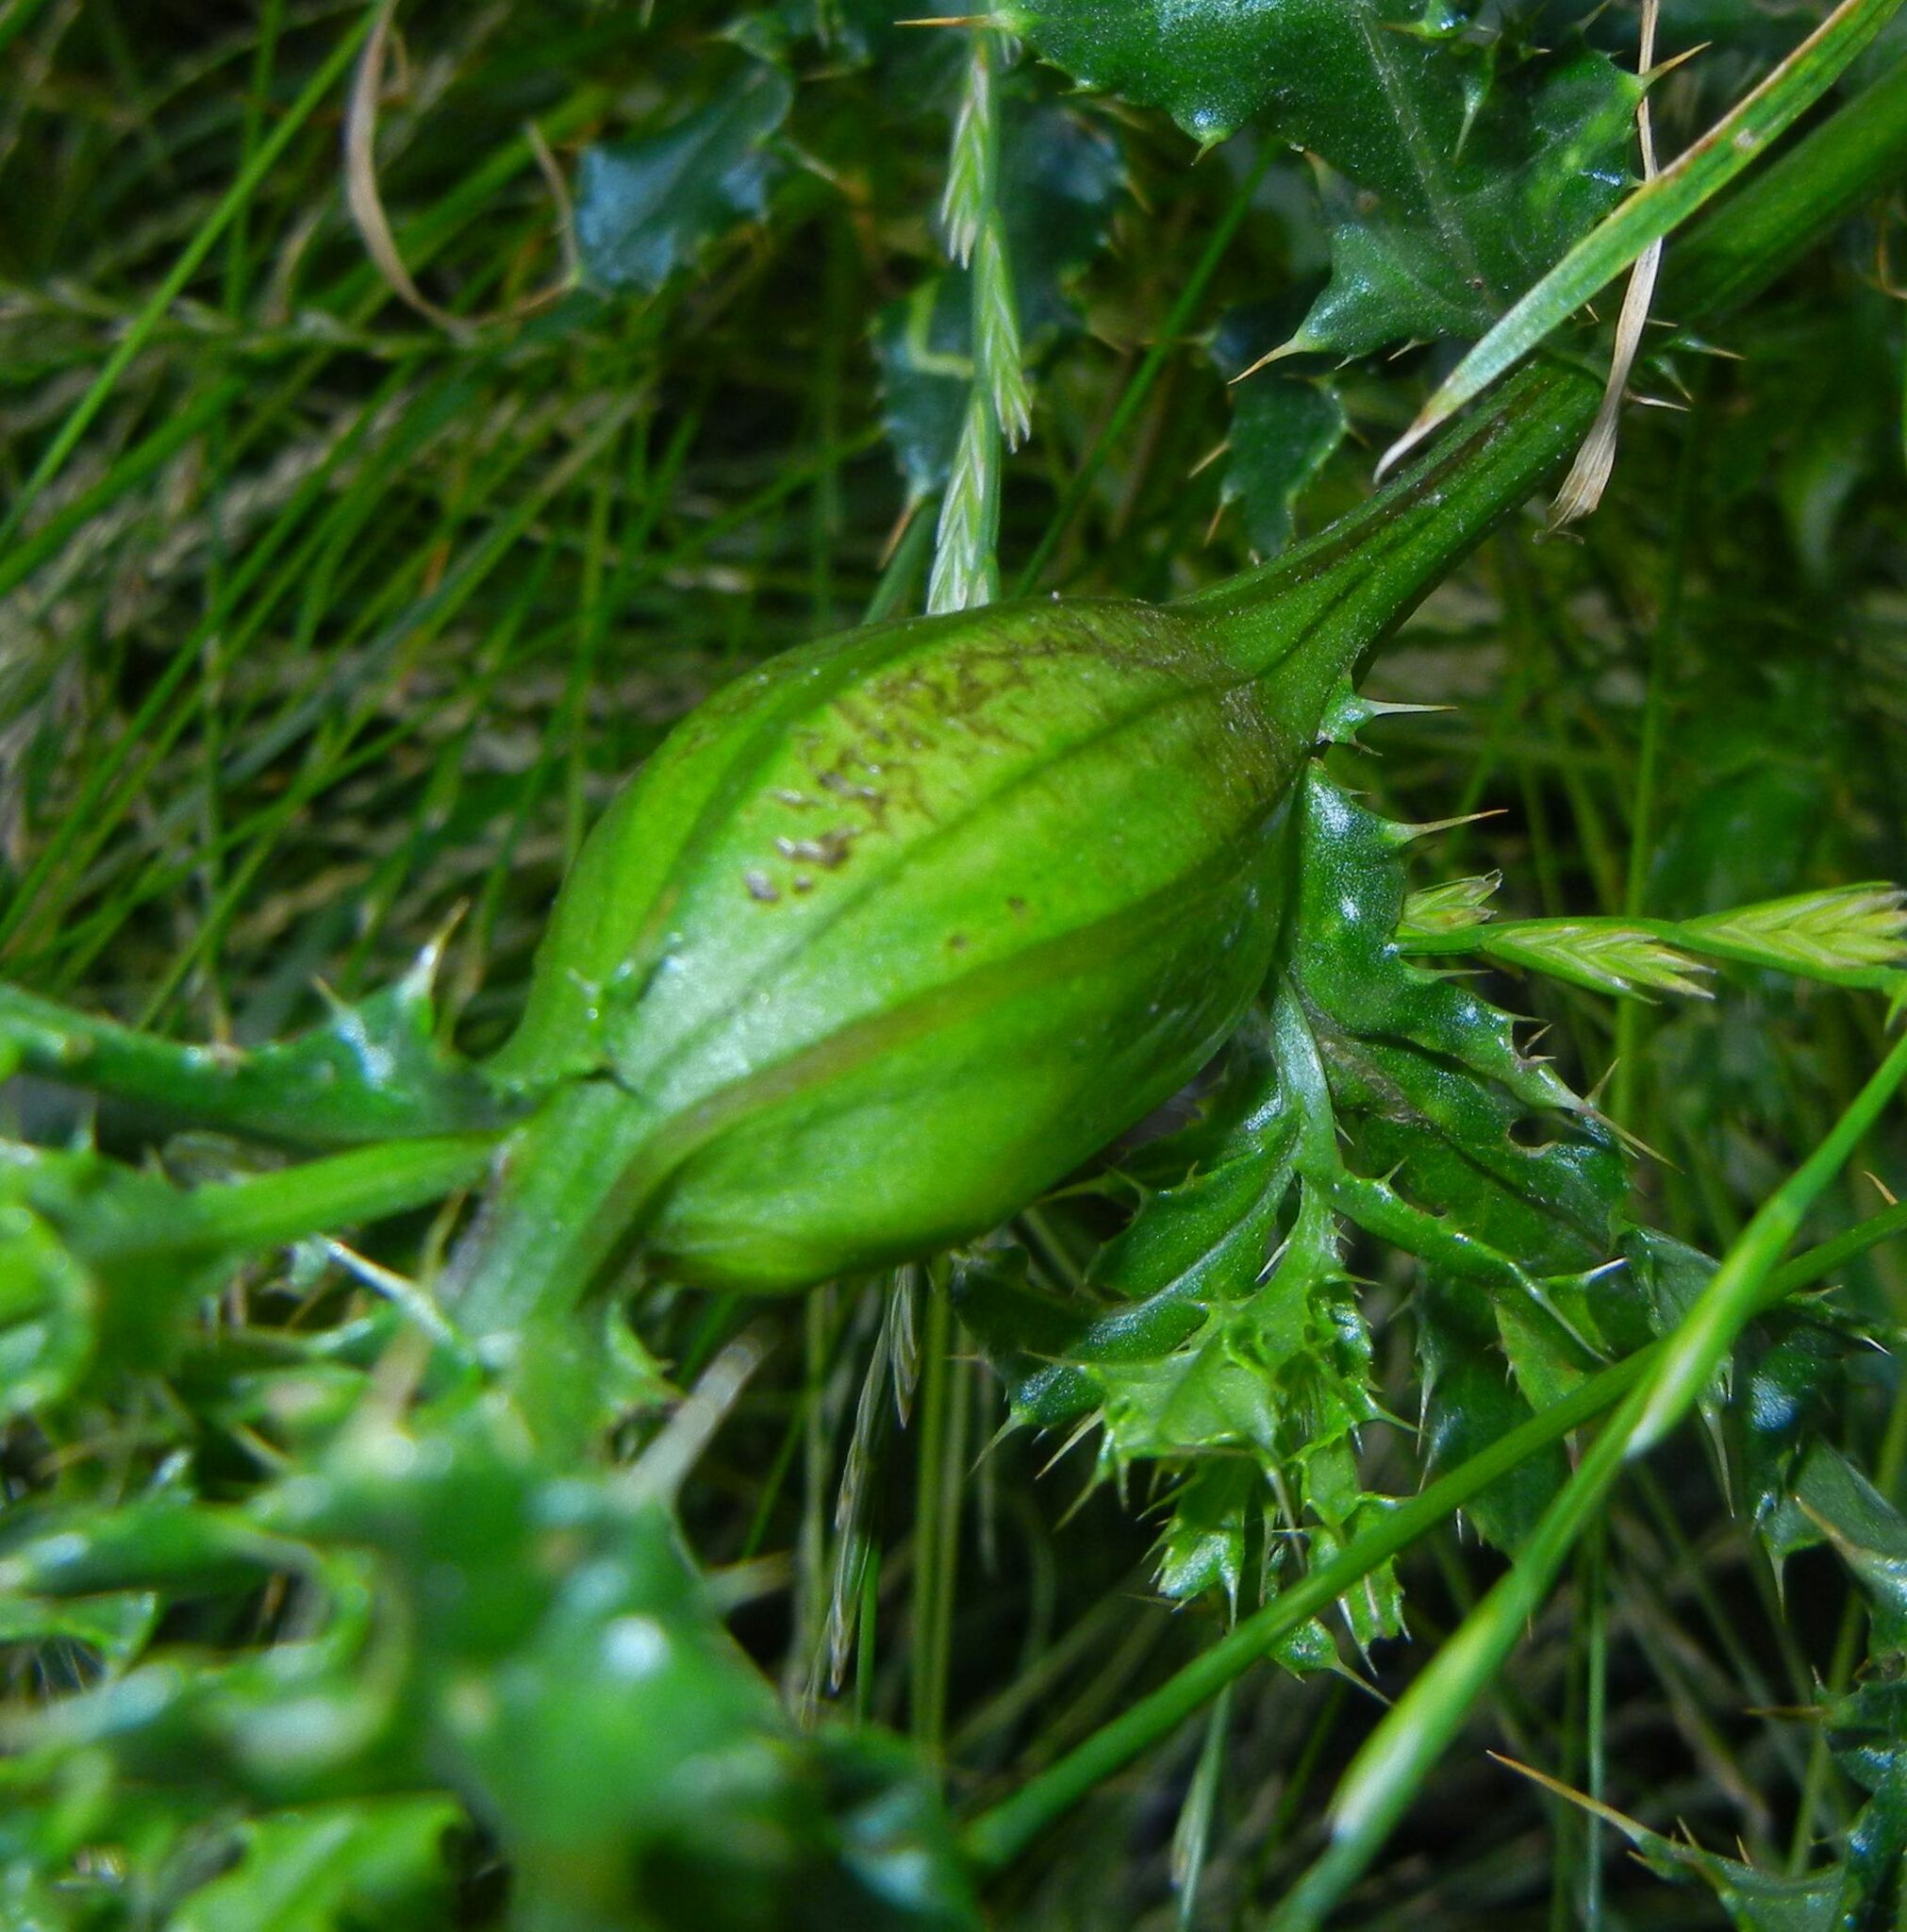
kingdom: Animalia
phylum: Arthropoda
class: Insecta
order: Diptera
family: Tephritidae
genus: Urophora
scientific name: Urophora cardui
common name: Fruit fly
